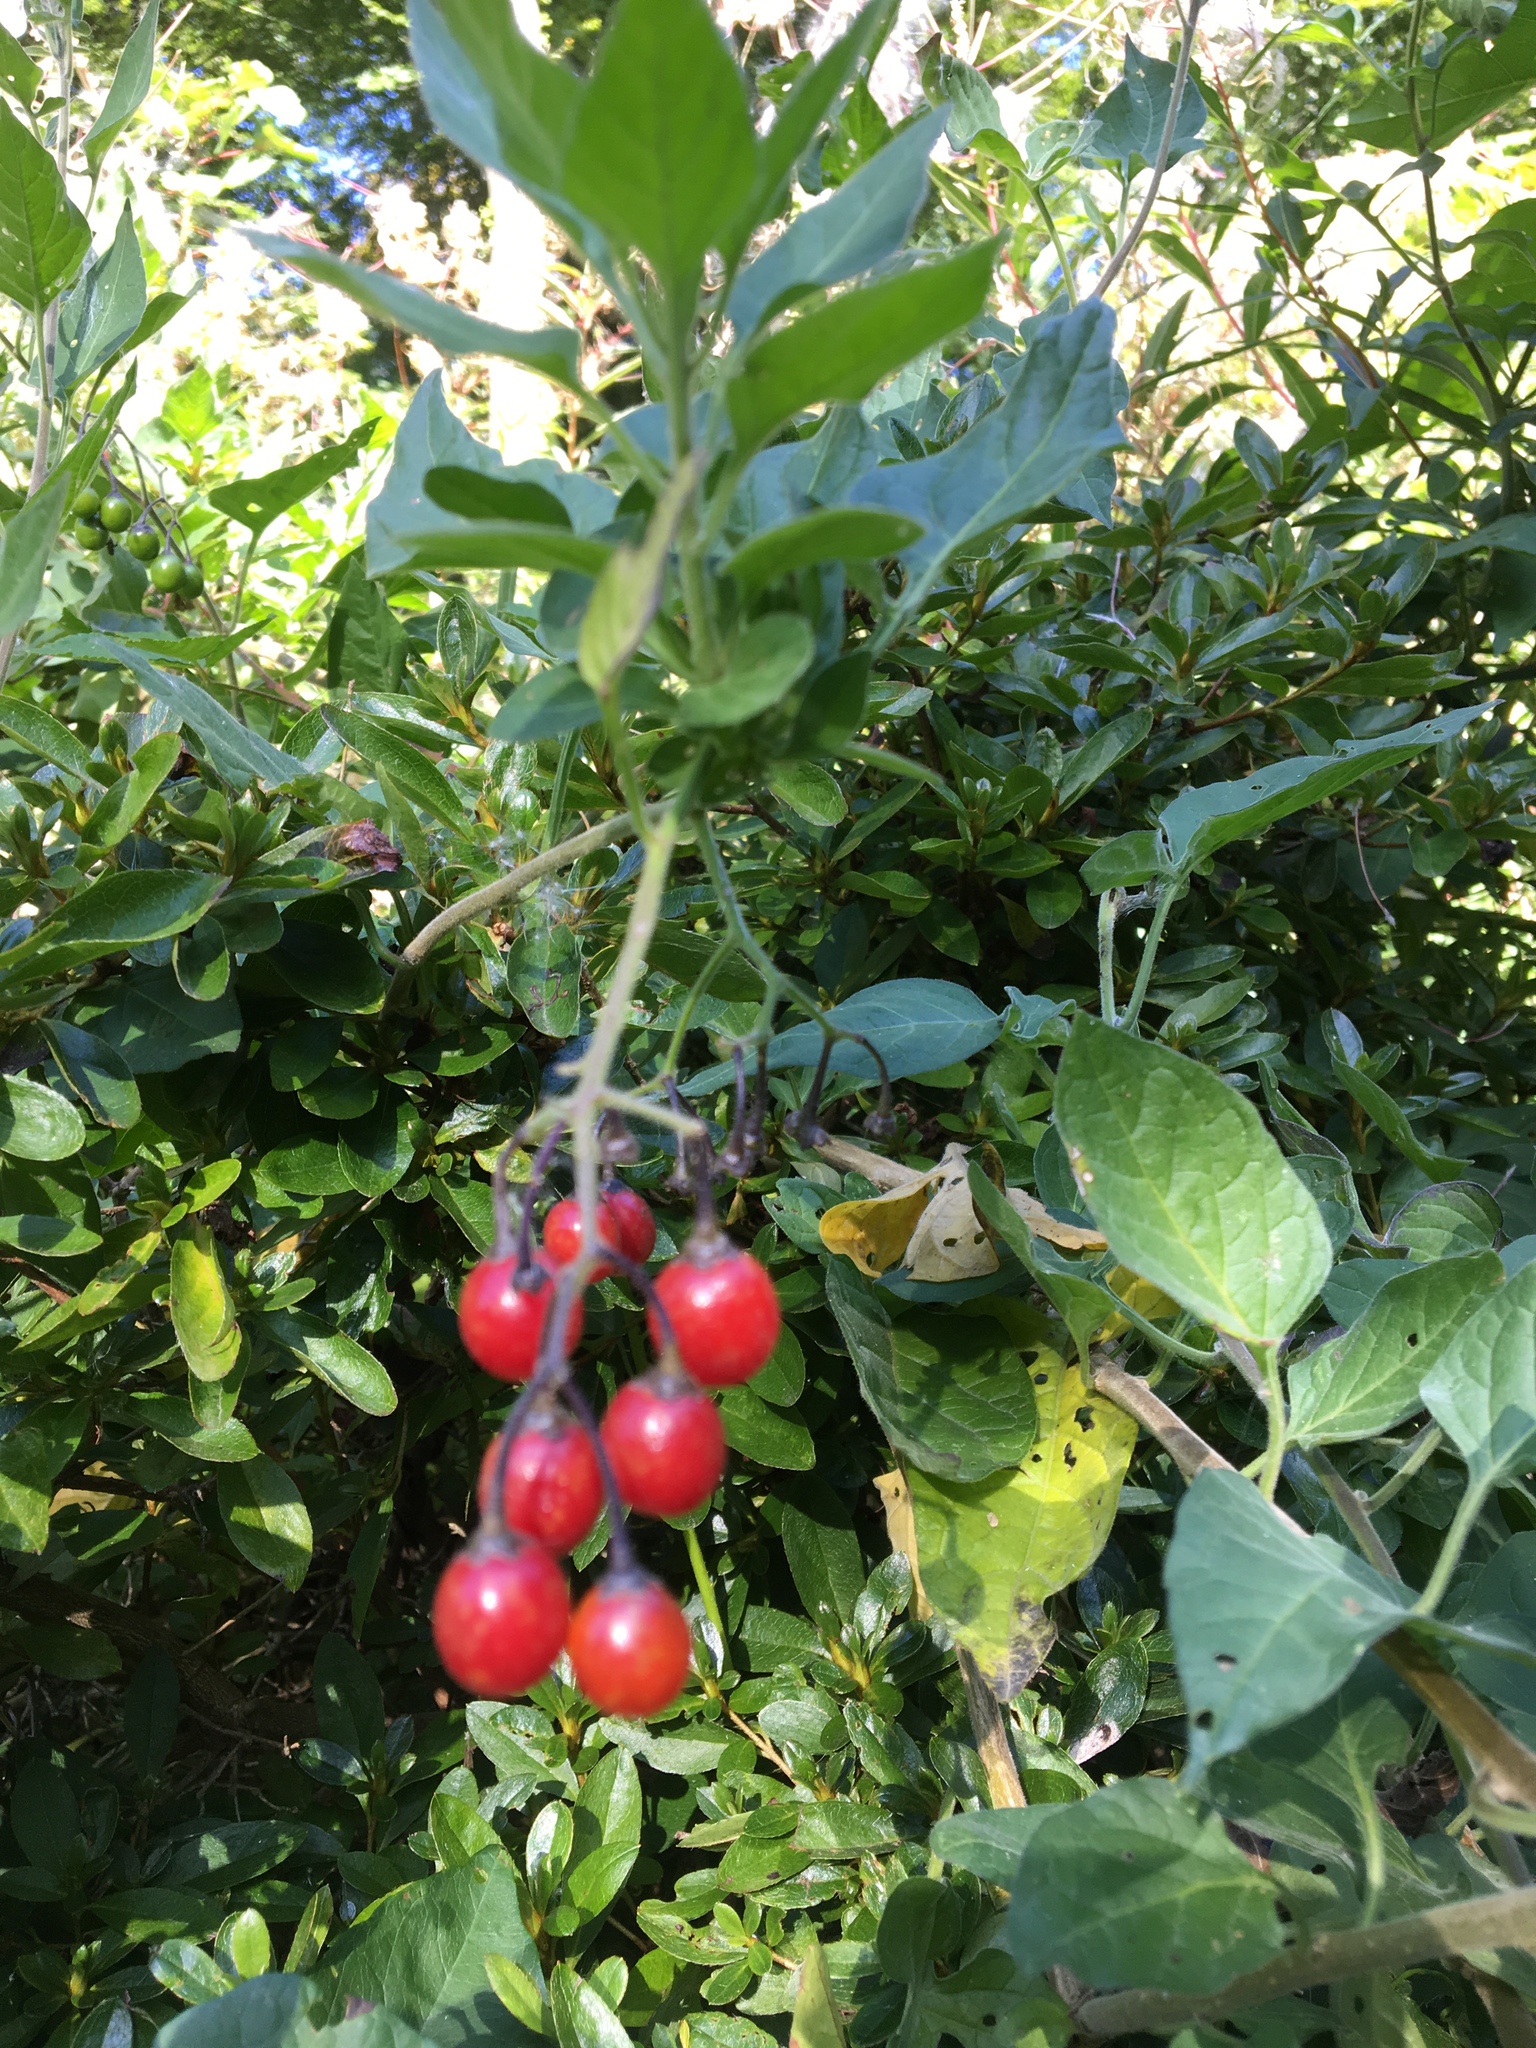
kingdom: Plantae
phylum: Tracheophyta
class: Magnoliopsida
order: Solanales
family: Solanaceae
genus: Solanum
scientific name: Solanum dulcamara
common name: Climbing nightshade
